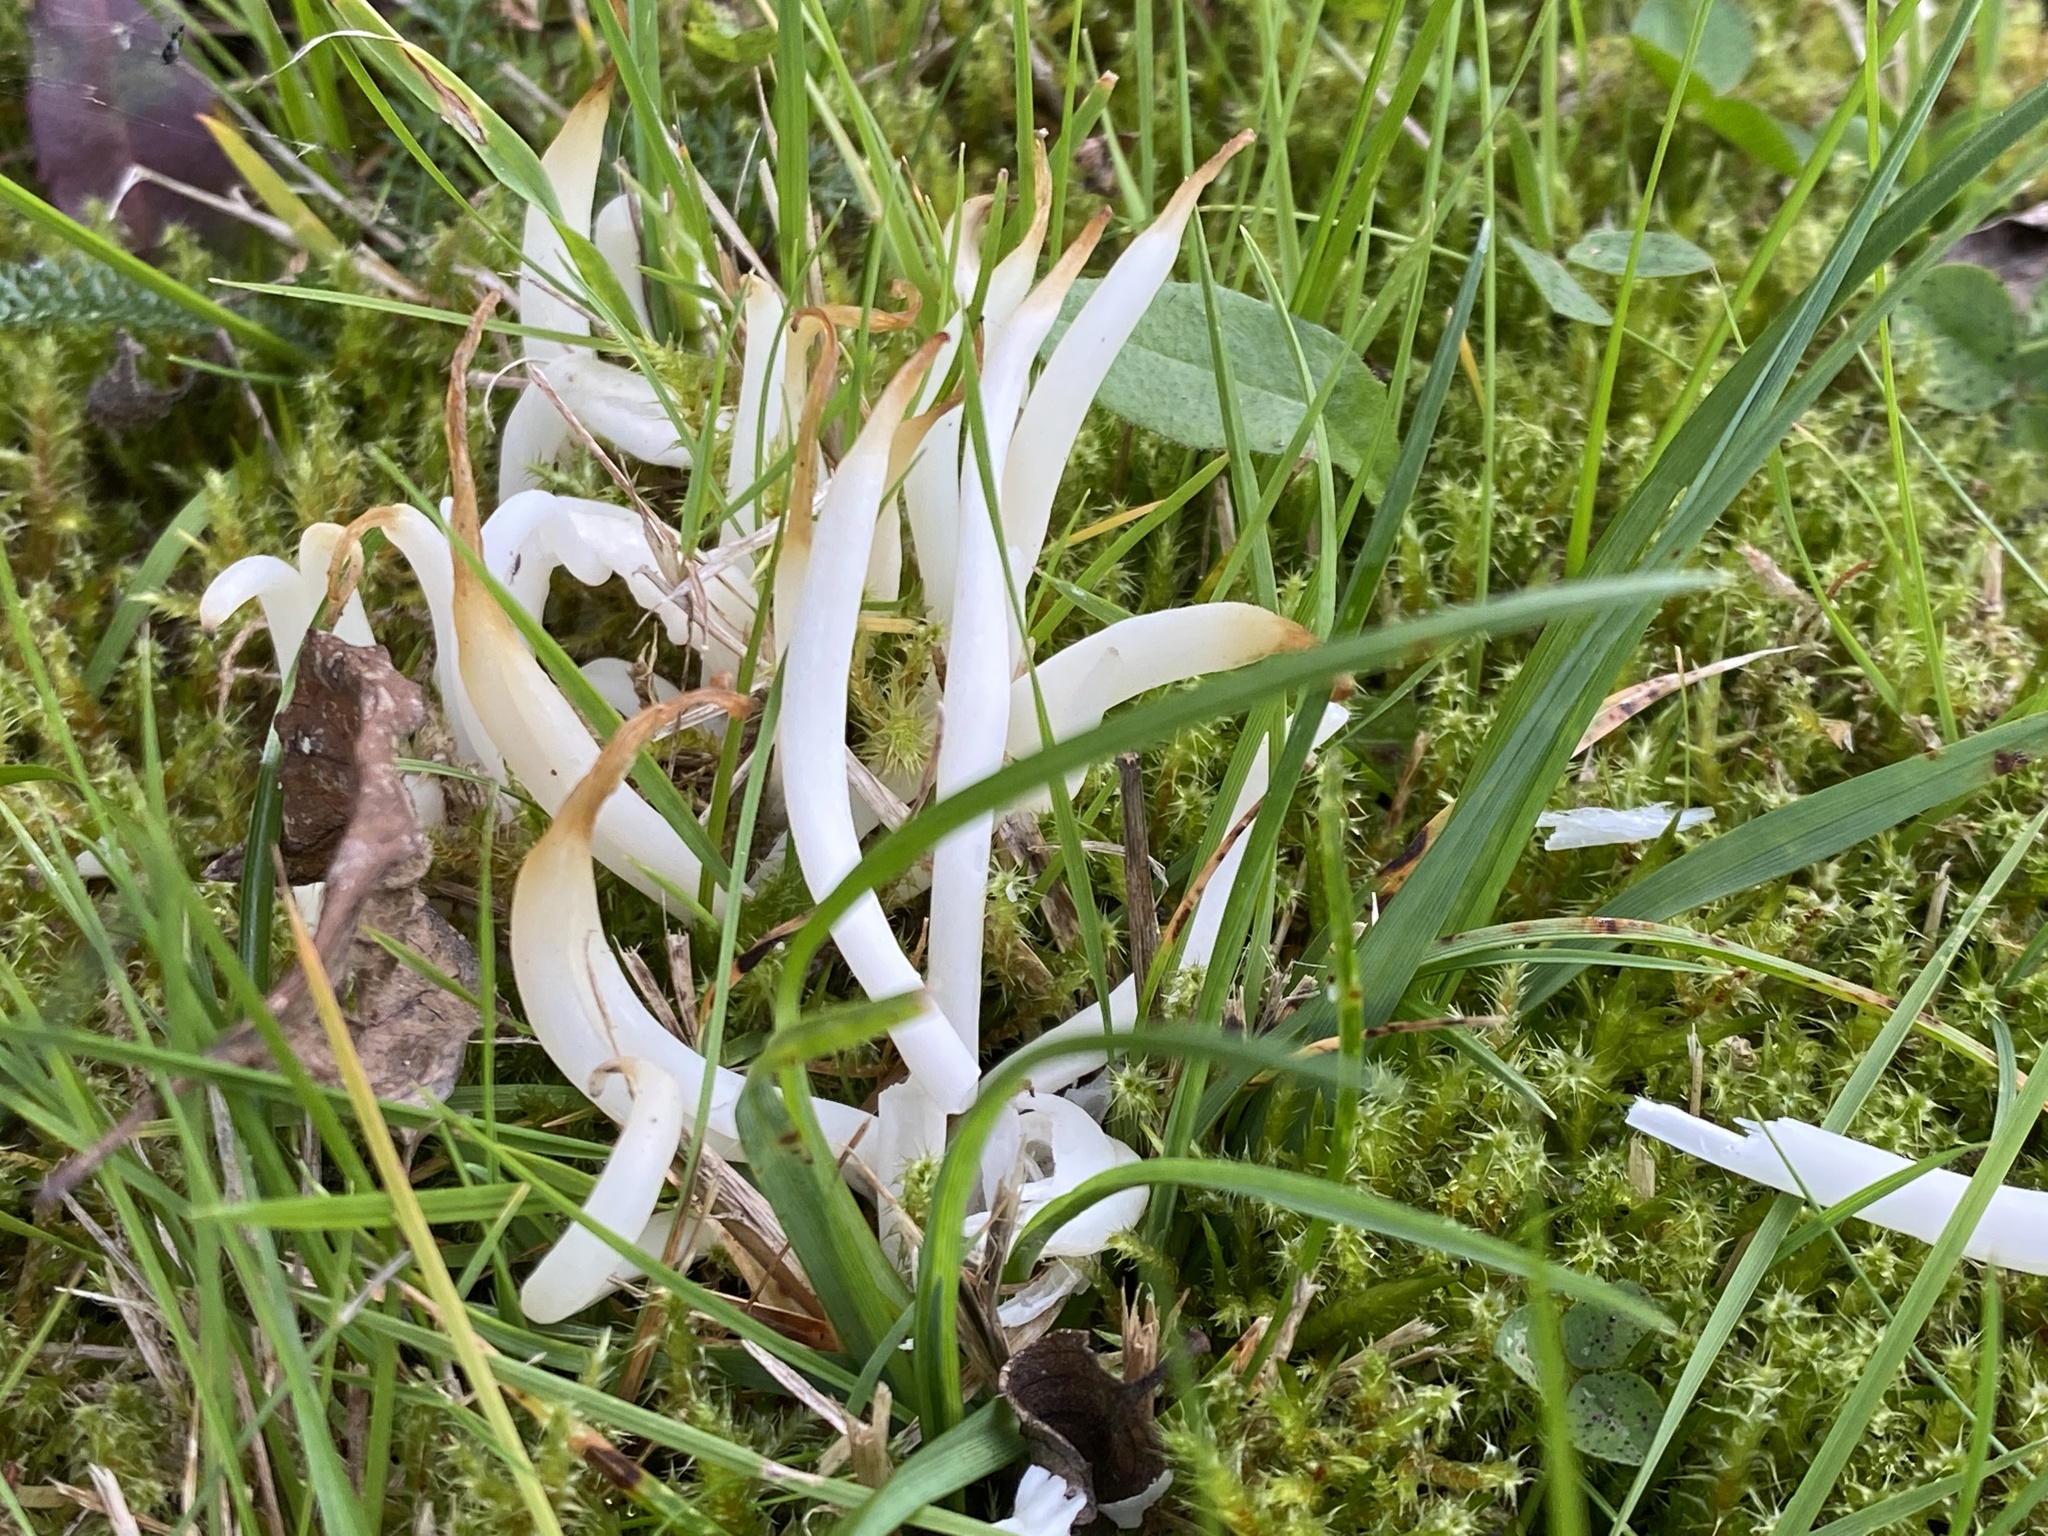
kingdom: Fungi
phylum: Basidiomycota
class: Agaricomycetes
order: Agaricales
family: Clavariaceae
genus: Clavaria
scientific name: Clavaria fragilis
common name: White spindles
